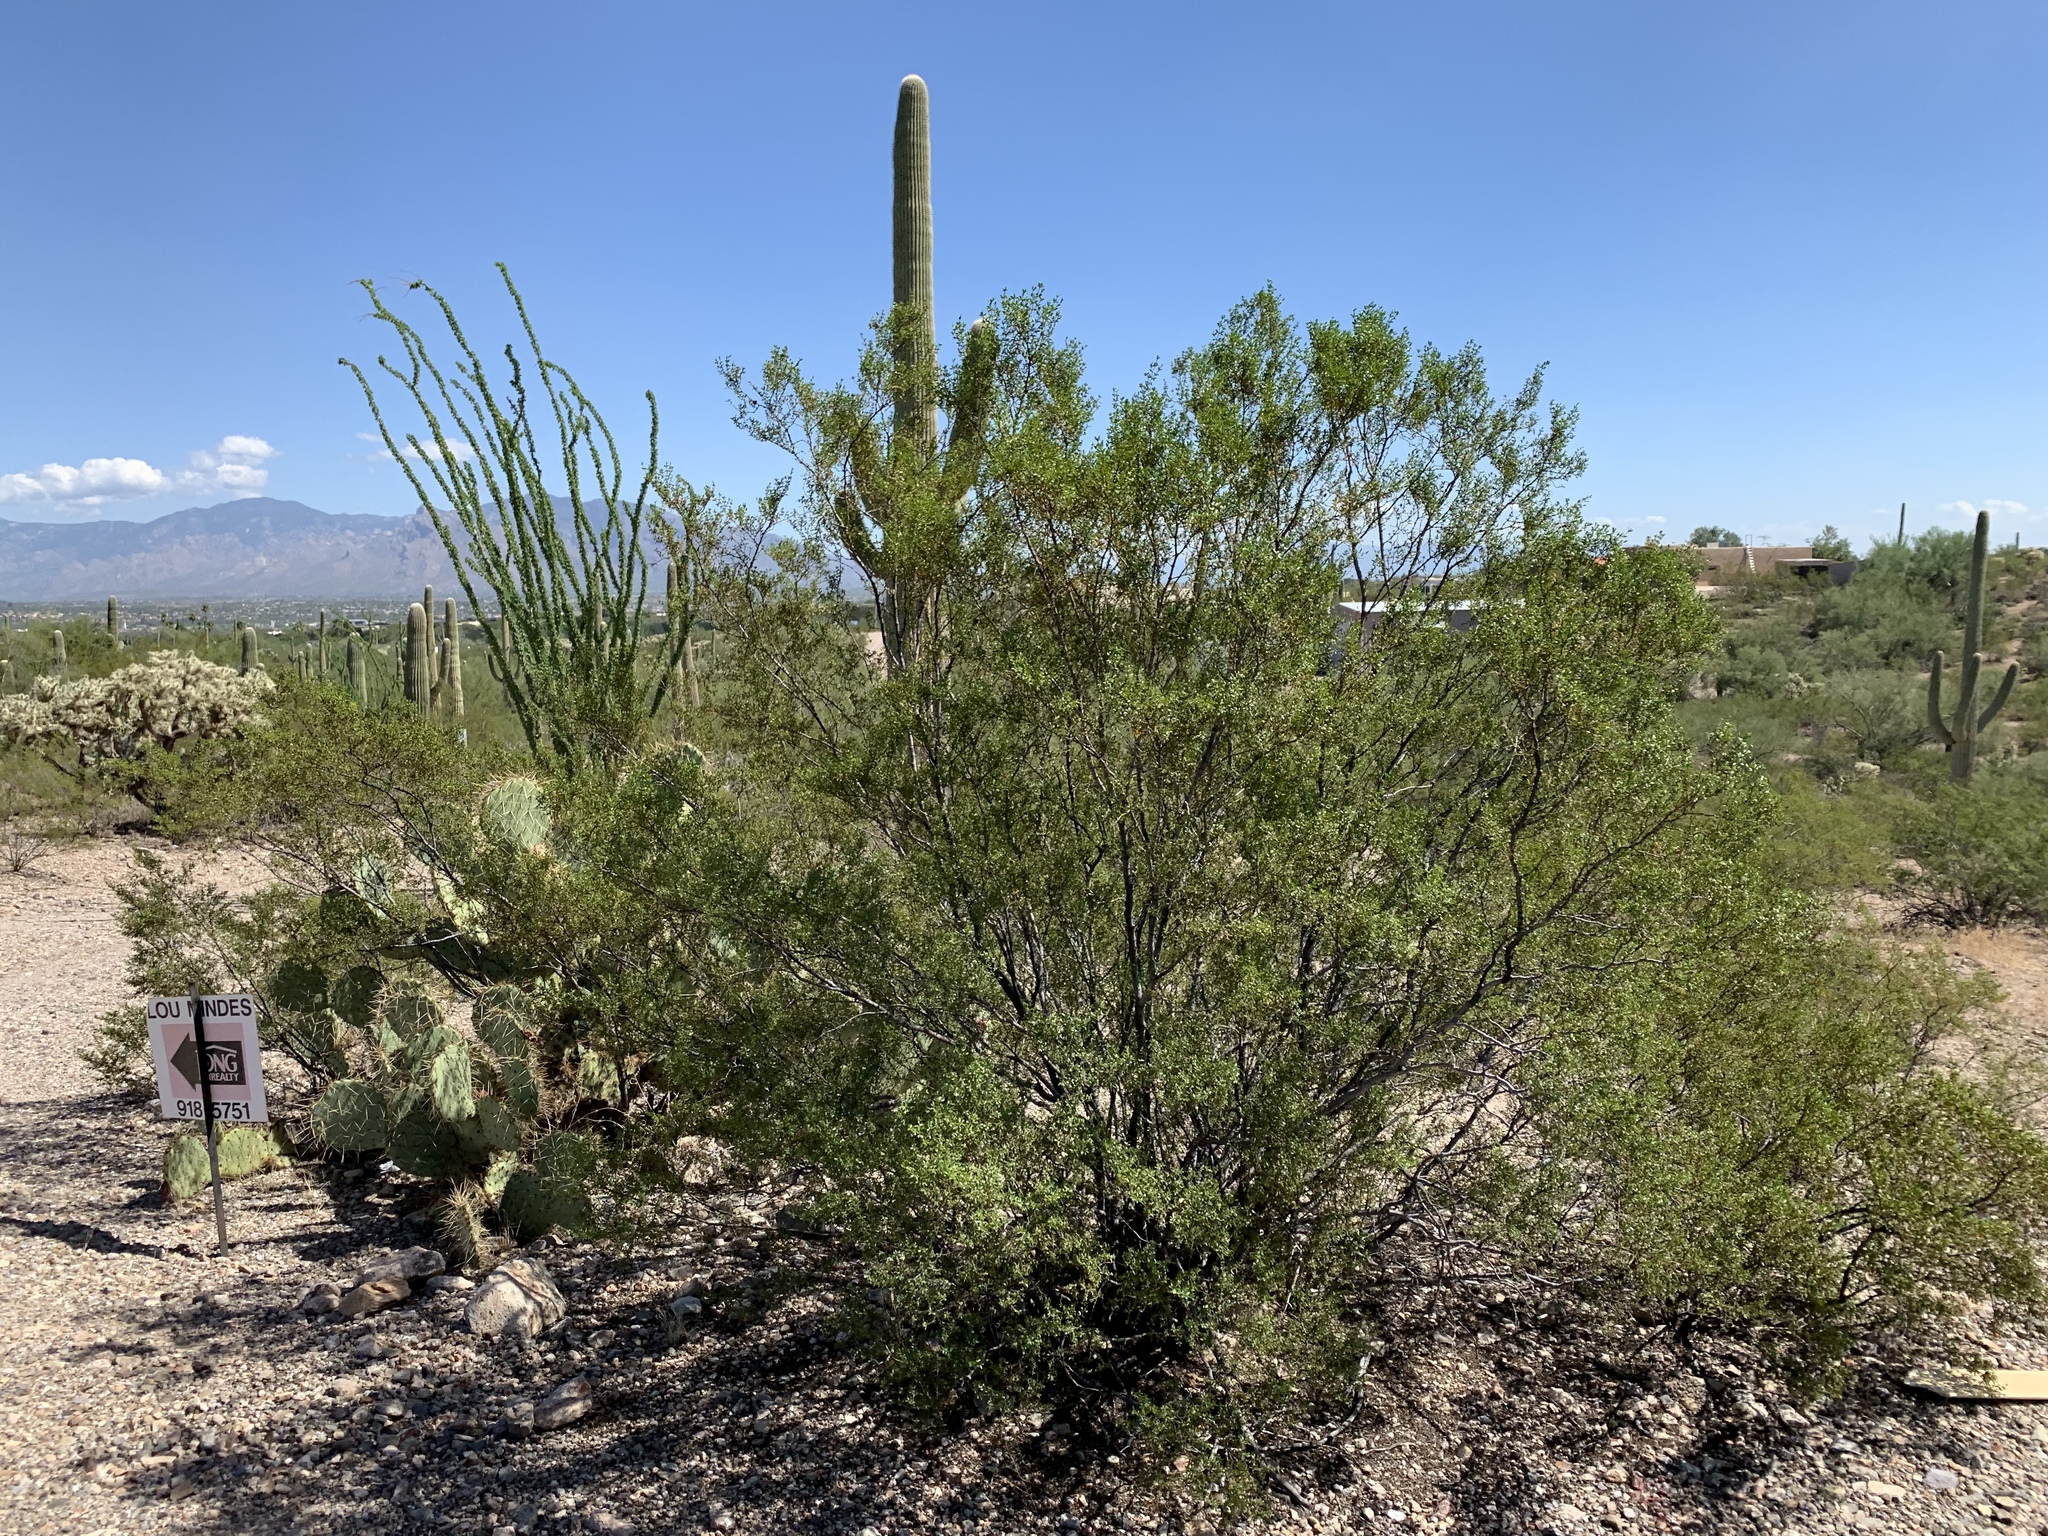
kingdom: Plantae
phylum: Tracheophyta
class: Magnoliopsida
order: Zygophyllales
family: Zygophyllaceae
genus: Larrea
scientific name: Larrea tridentata
